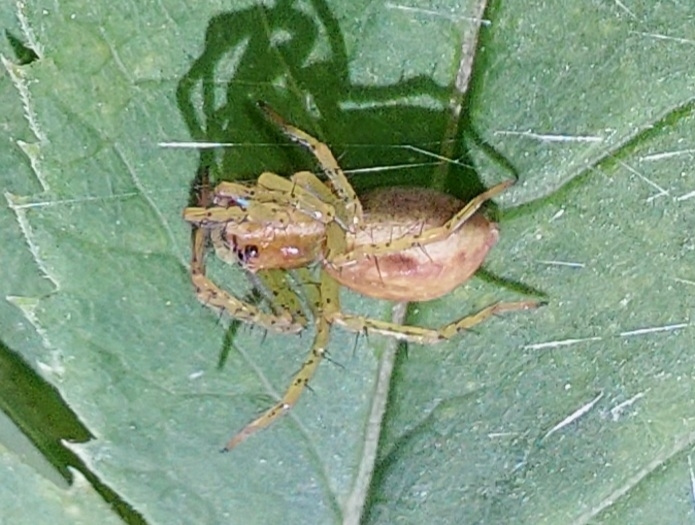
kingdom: Animalia
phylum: Arthropoda
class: Arachnida
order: Araneae
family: Pisauridae
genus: Dolomedes
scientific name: Dolomedes fimbriatus
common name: Raft spider
